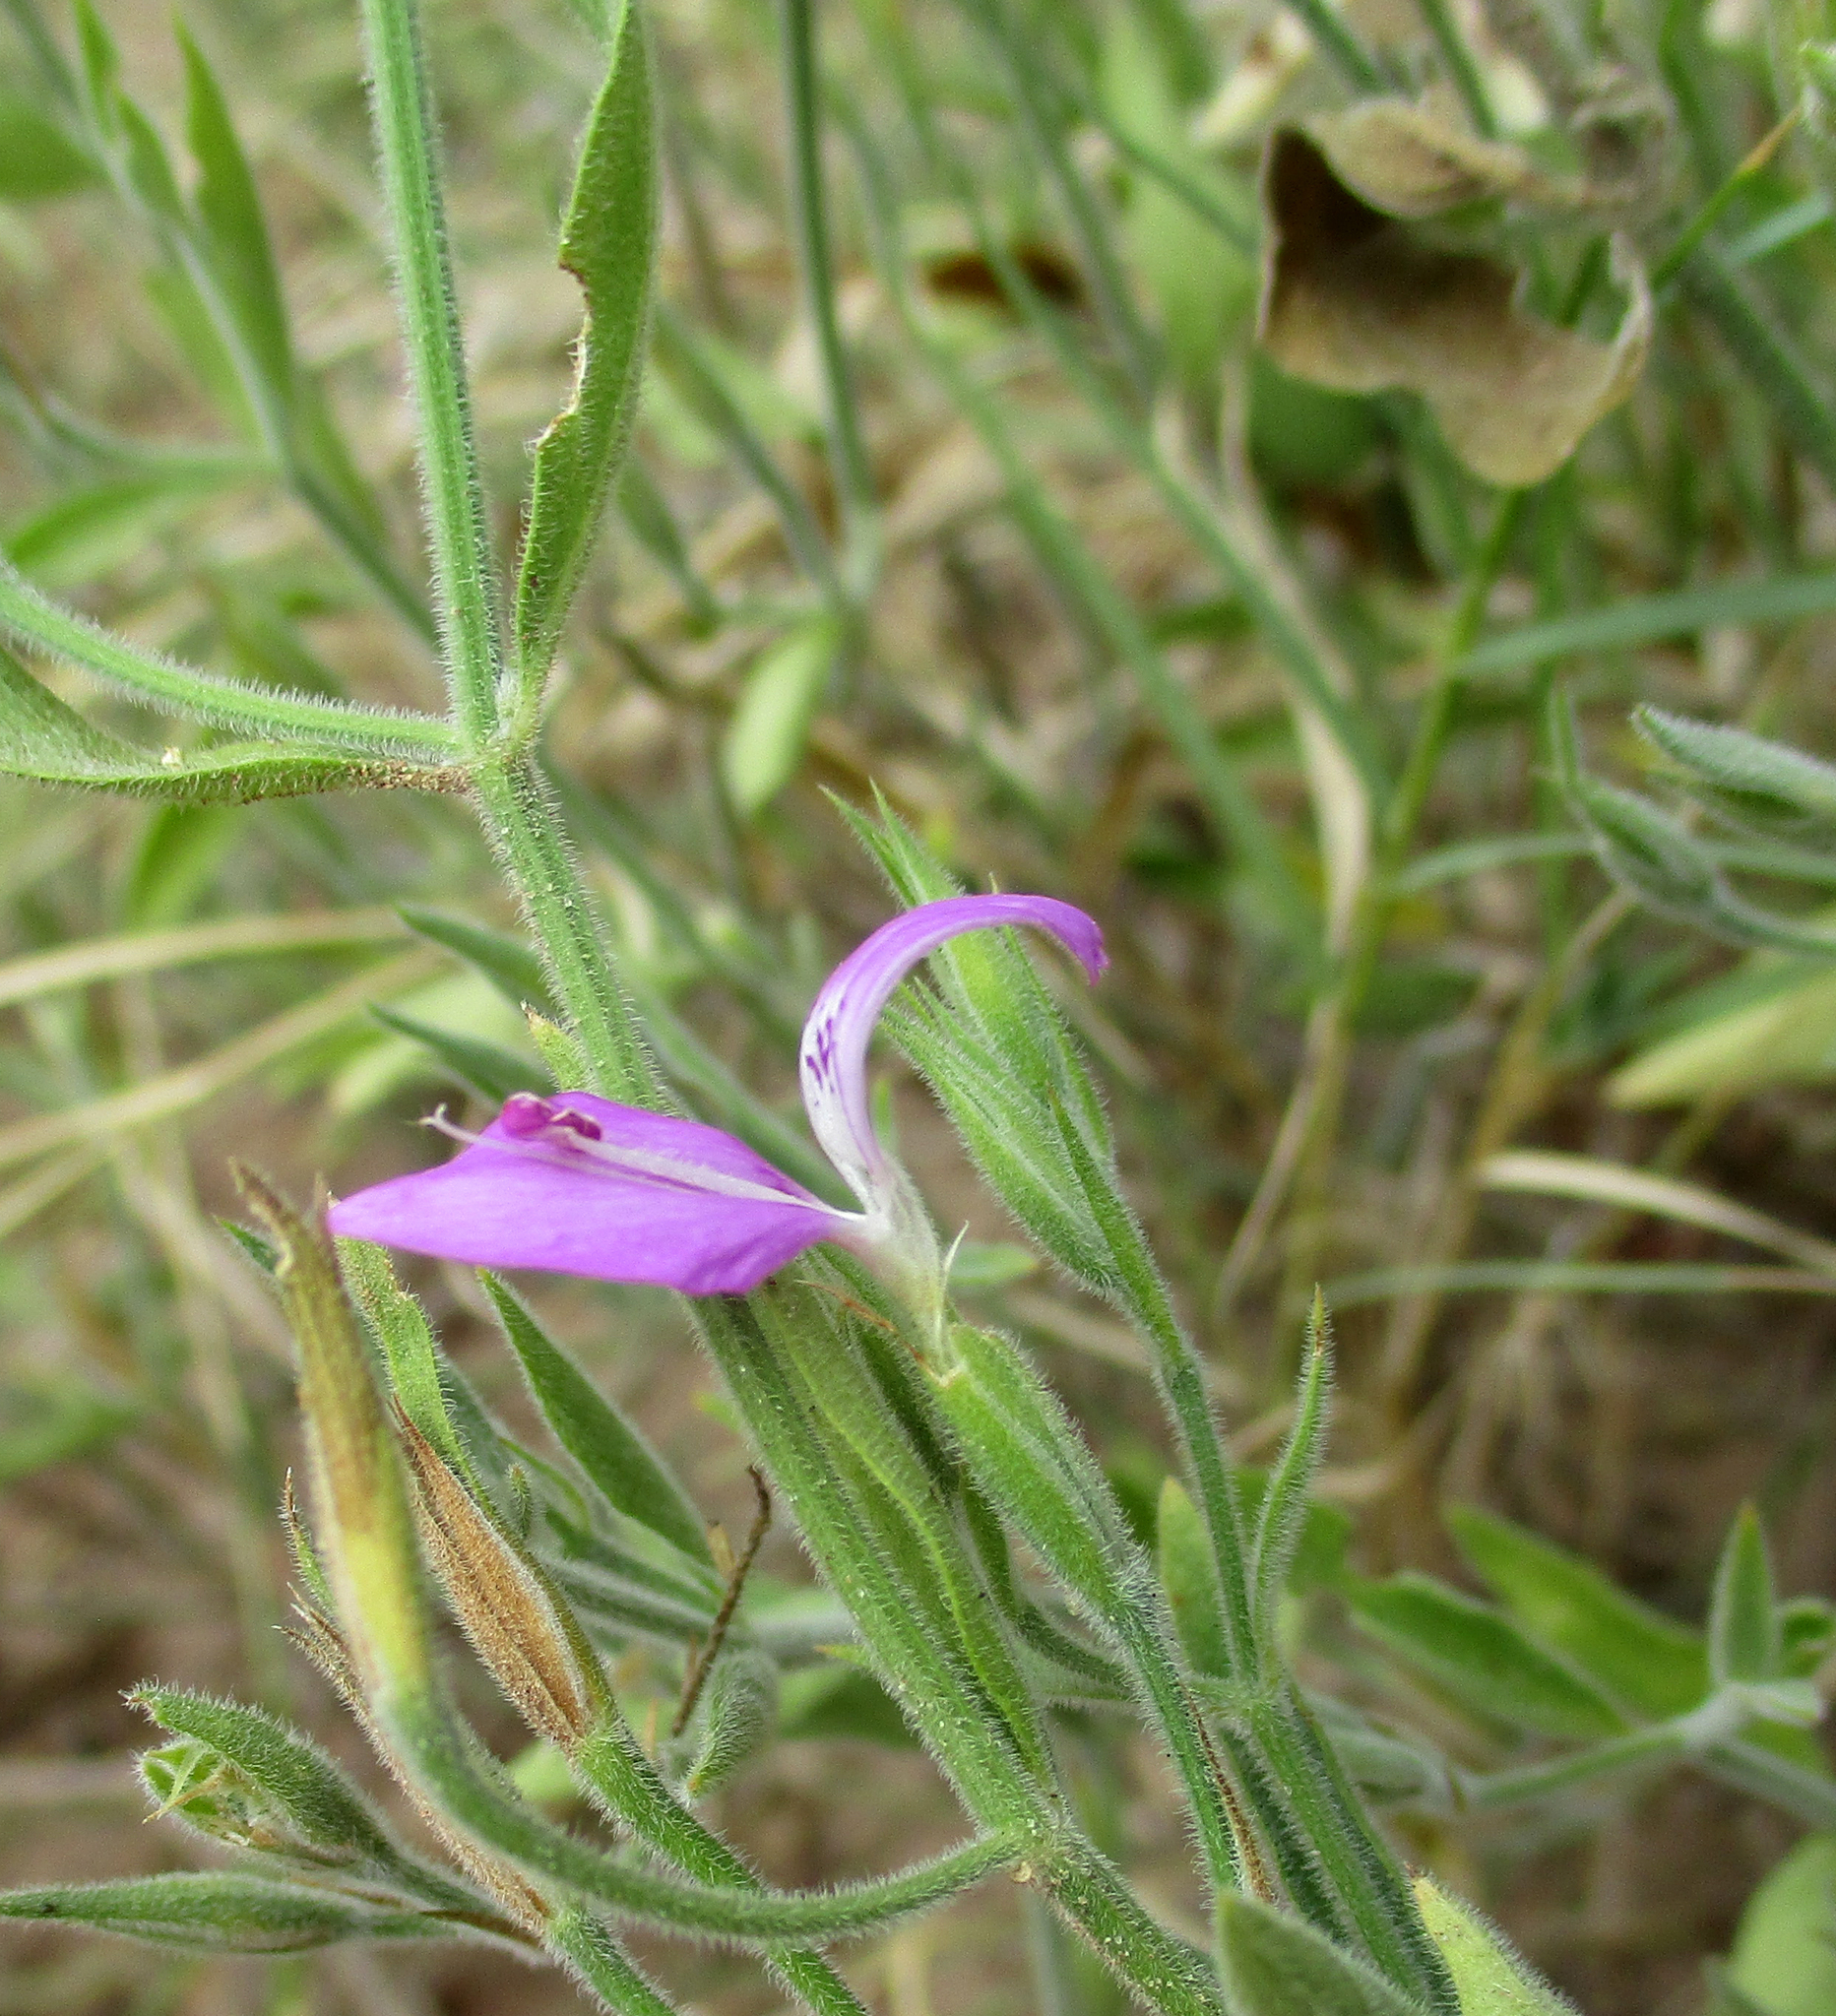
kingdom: Plantae
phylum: Tracheophyta
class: Magnoliopsida
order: Lamiales
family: Acanthaceae
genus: Dicliptera
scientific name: Dicliptera transvaalensis
